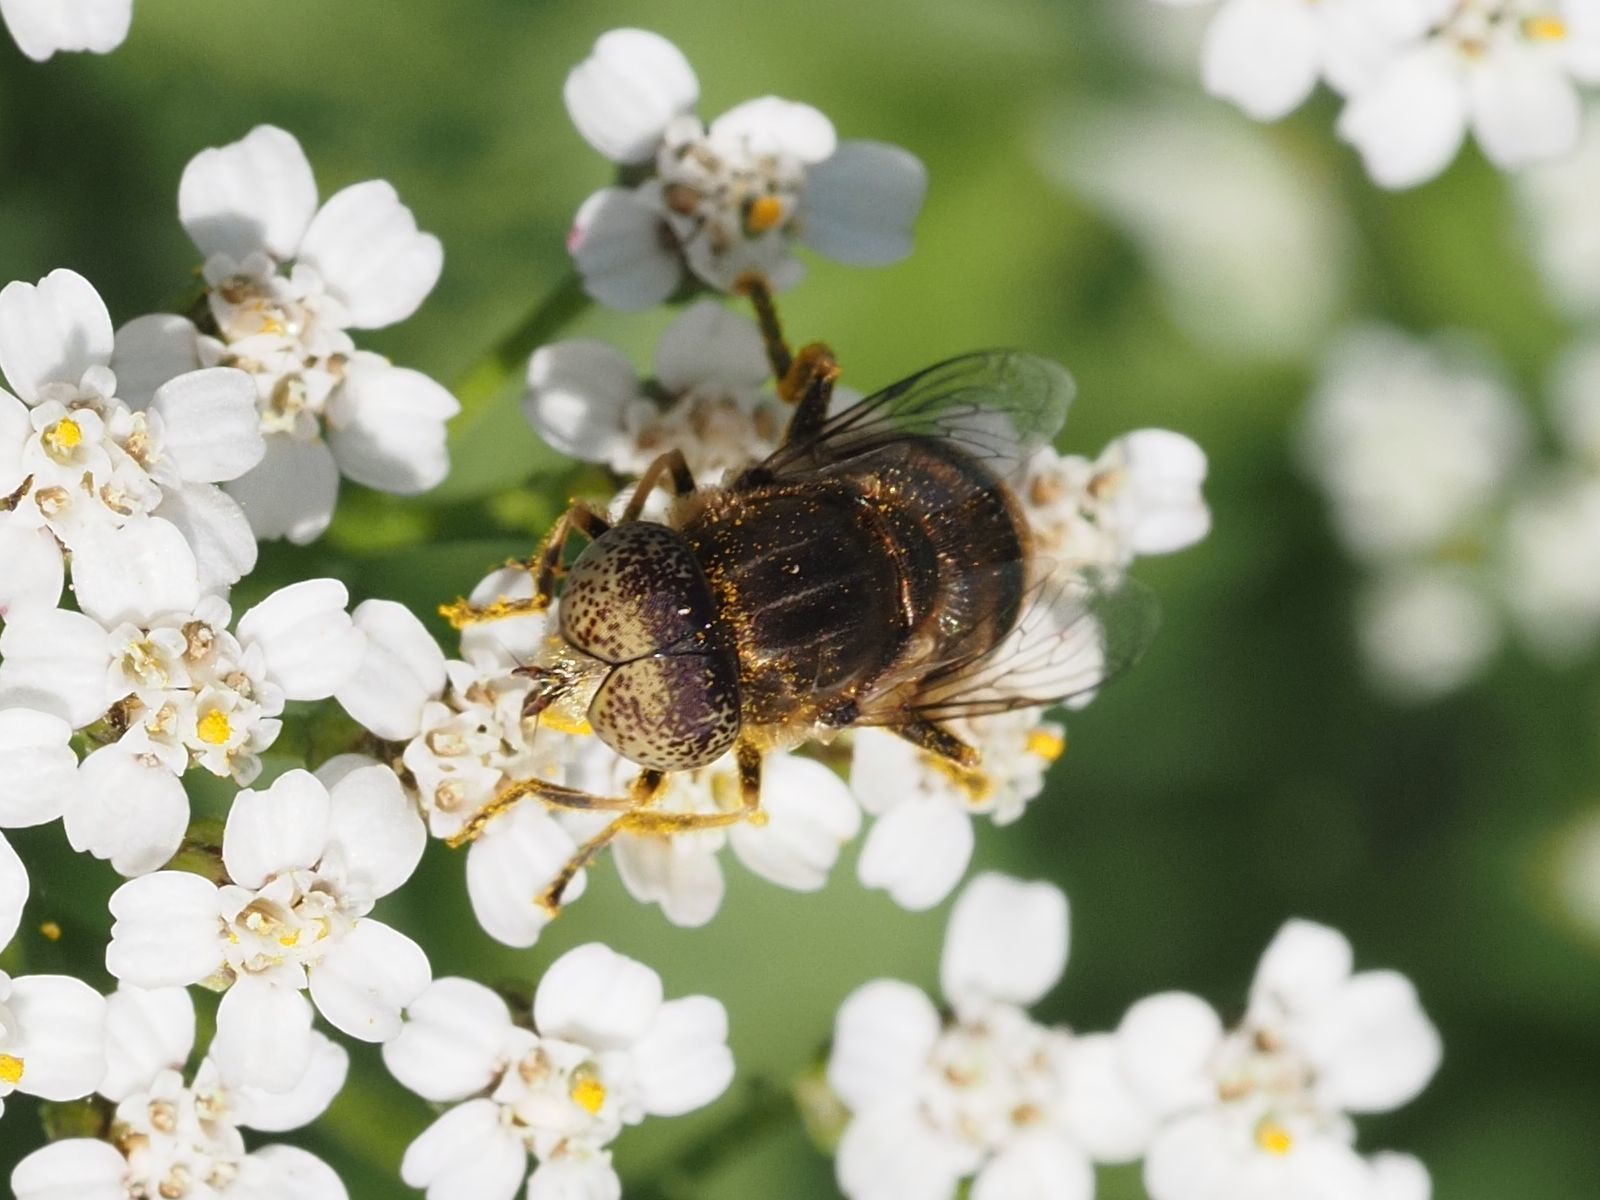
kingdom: Animalia
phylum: Arthropoda
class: Insecta
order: Diptera
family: Syrphidae
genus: Eristalinus
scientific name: Eristalinus aeneus
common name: Syrphid fly
